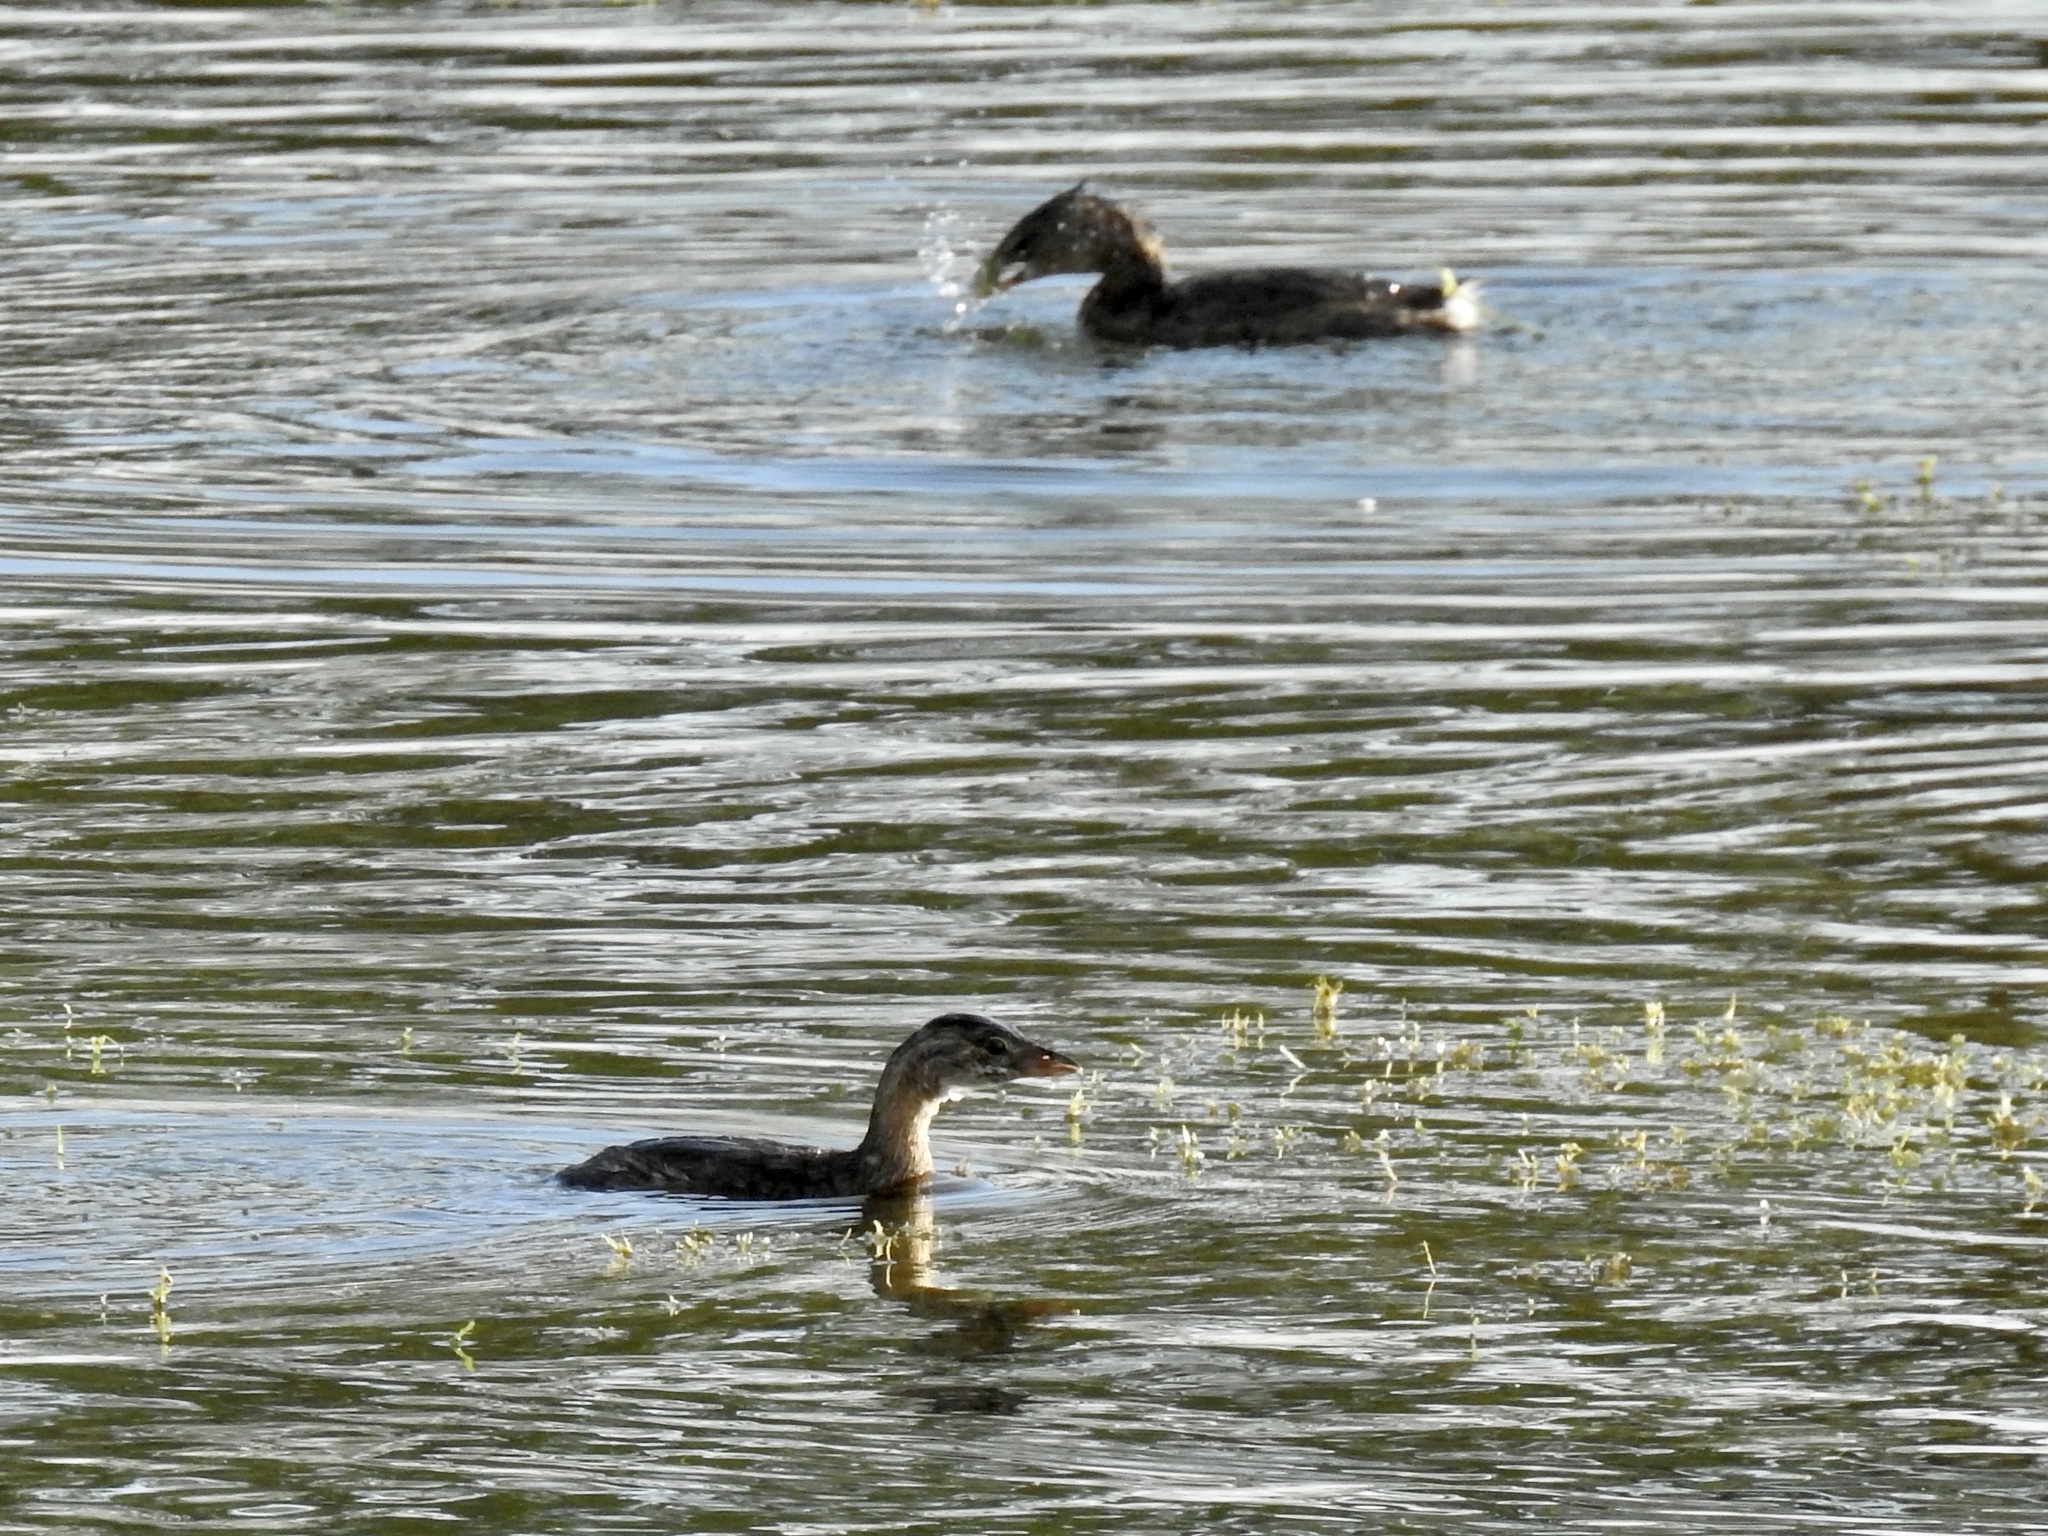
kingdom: Animalia
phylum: Chordata
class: Aves
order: Podicipediformes
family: Podicipedidae
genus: Podilymbus
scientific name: Podilymbus podiceps
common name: Pied-billed grebe
